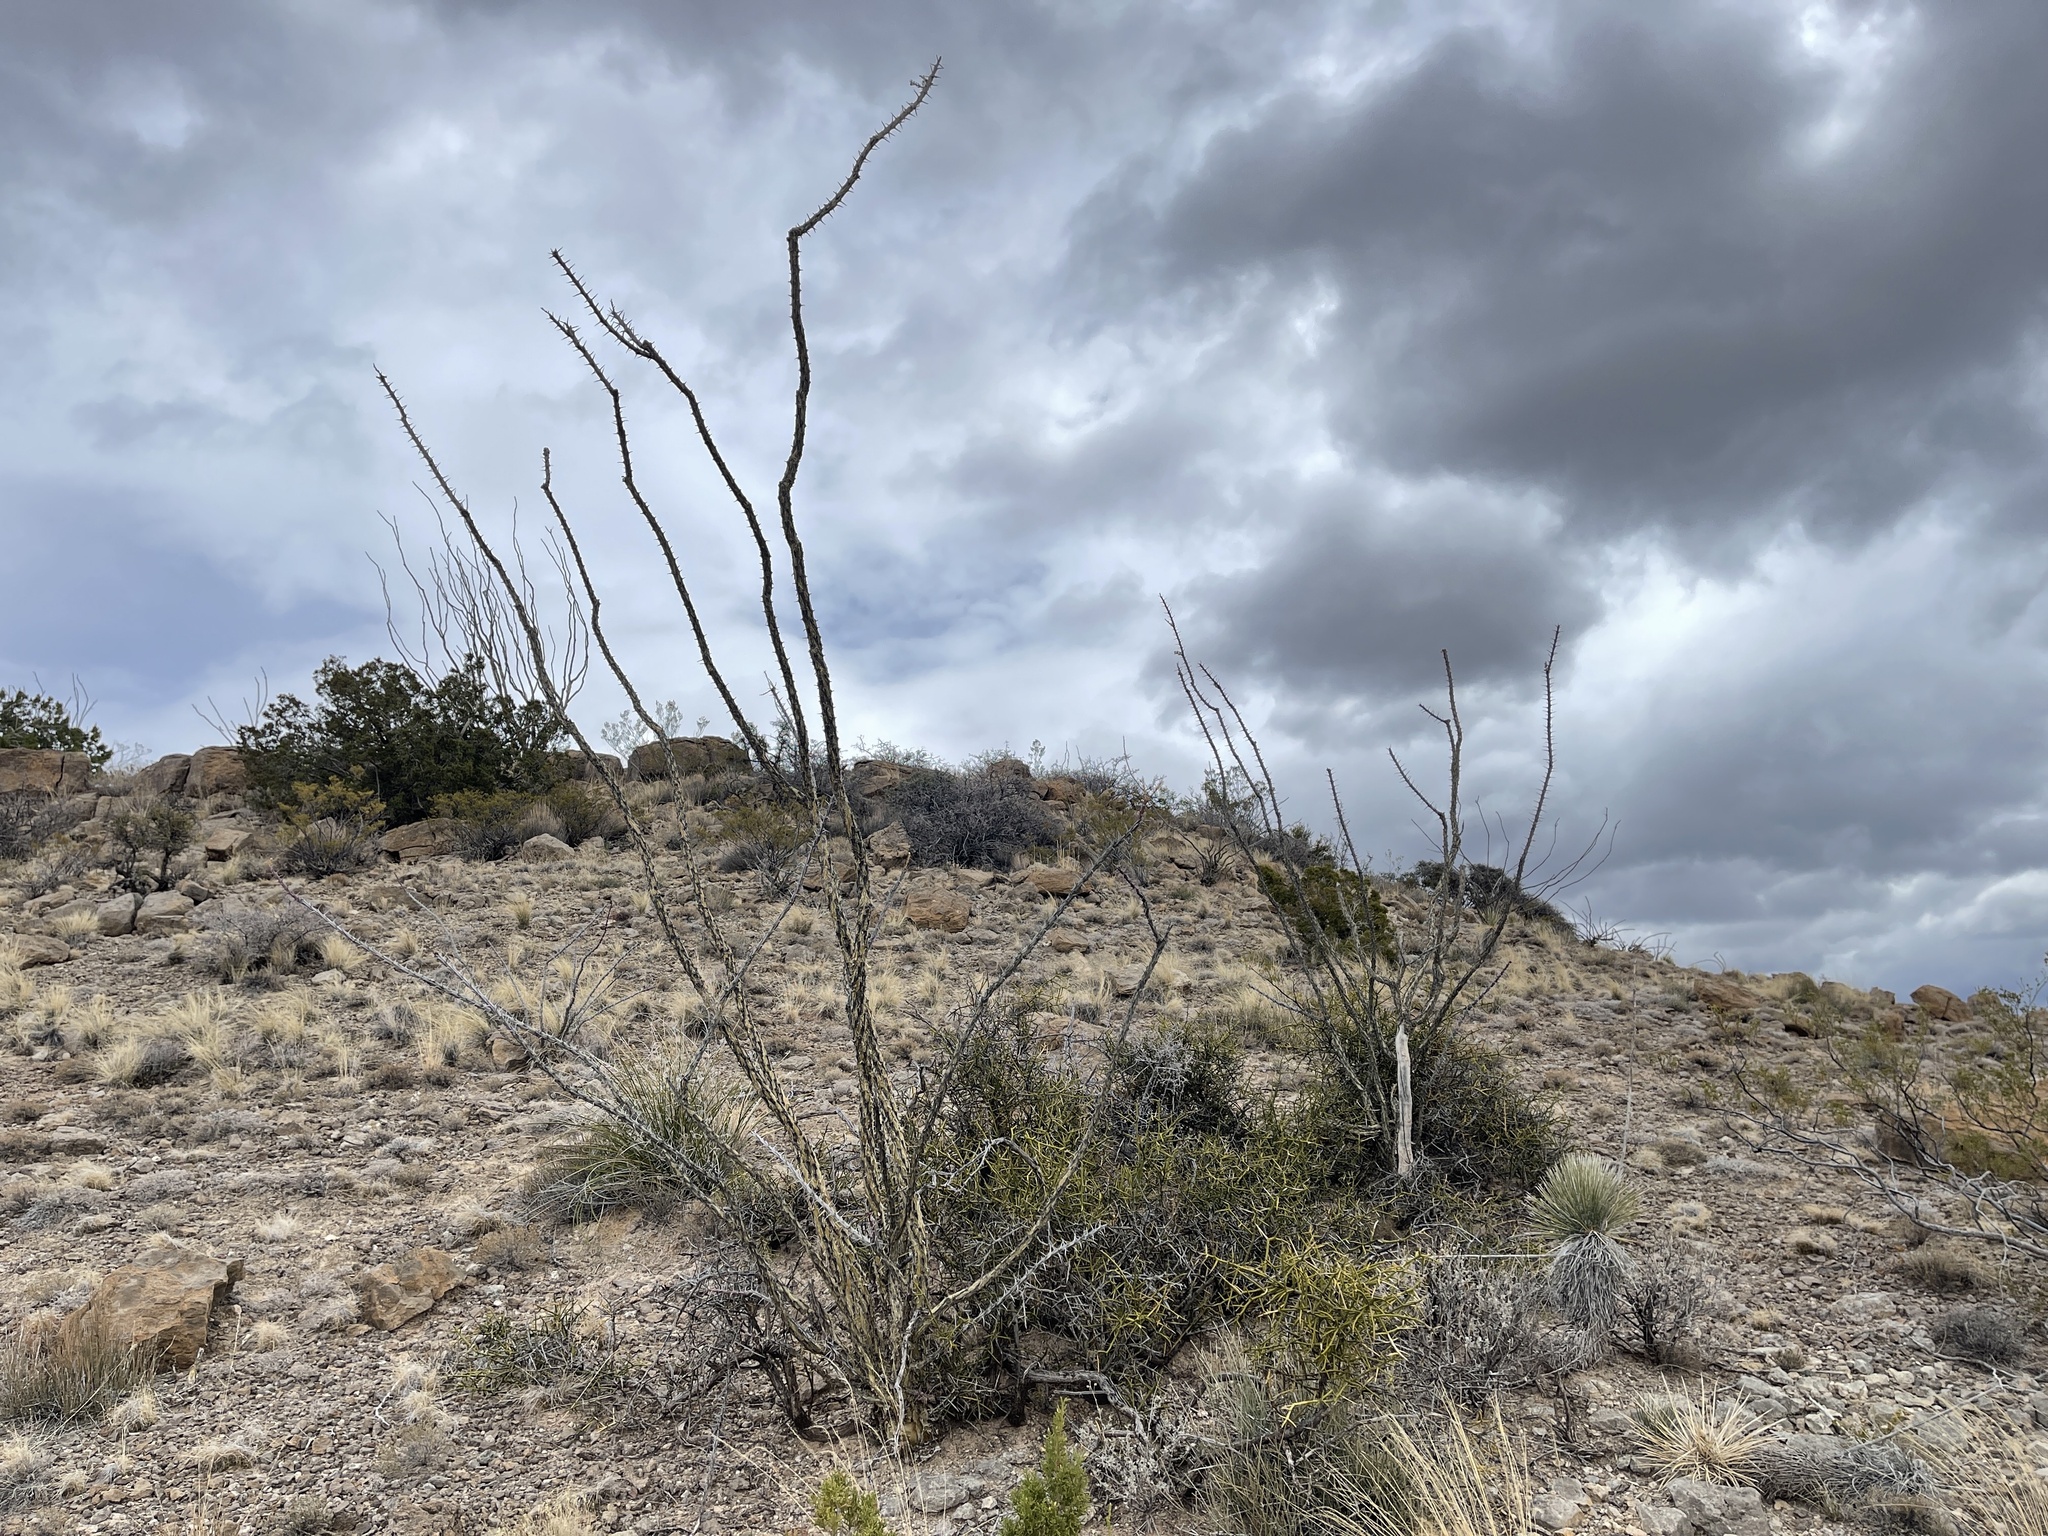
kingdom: Plantae
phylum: Tracheophyta
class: Magnoliopsida
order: Ericales
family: Fouquieriaceae
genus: Fouquieria
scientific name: Fouquieria splendens
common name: Vine-cactus
